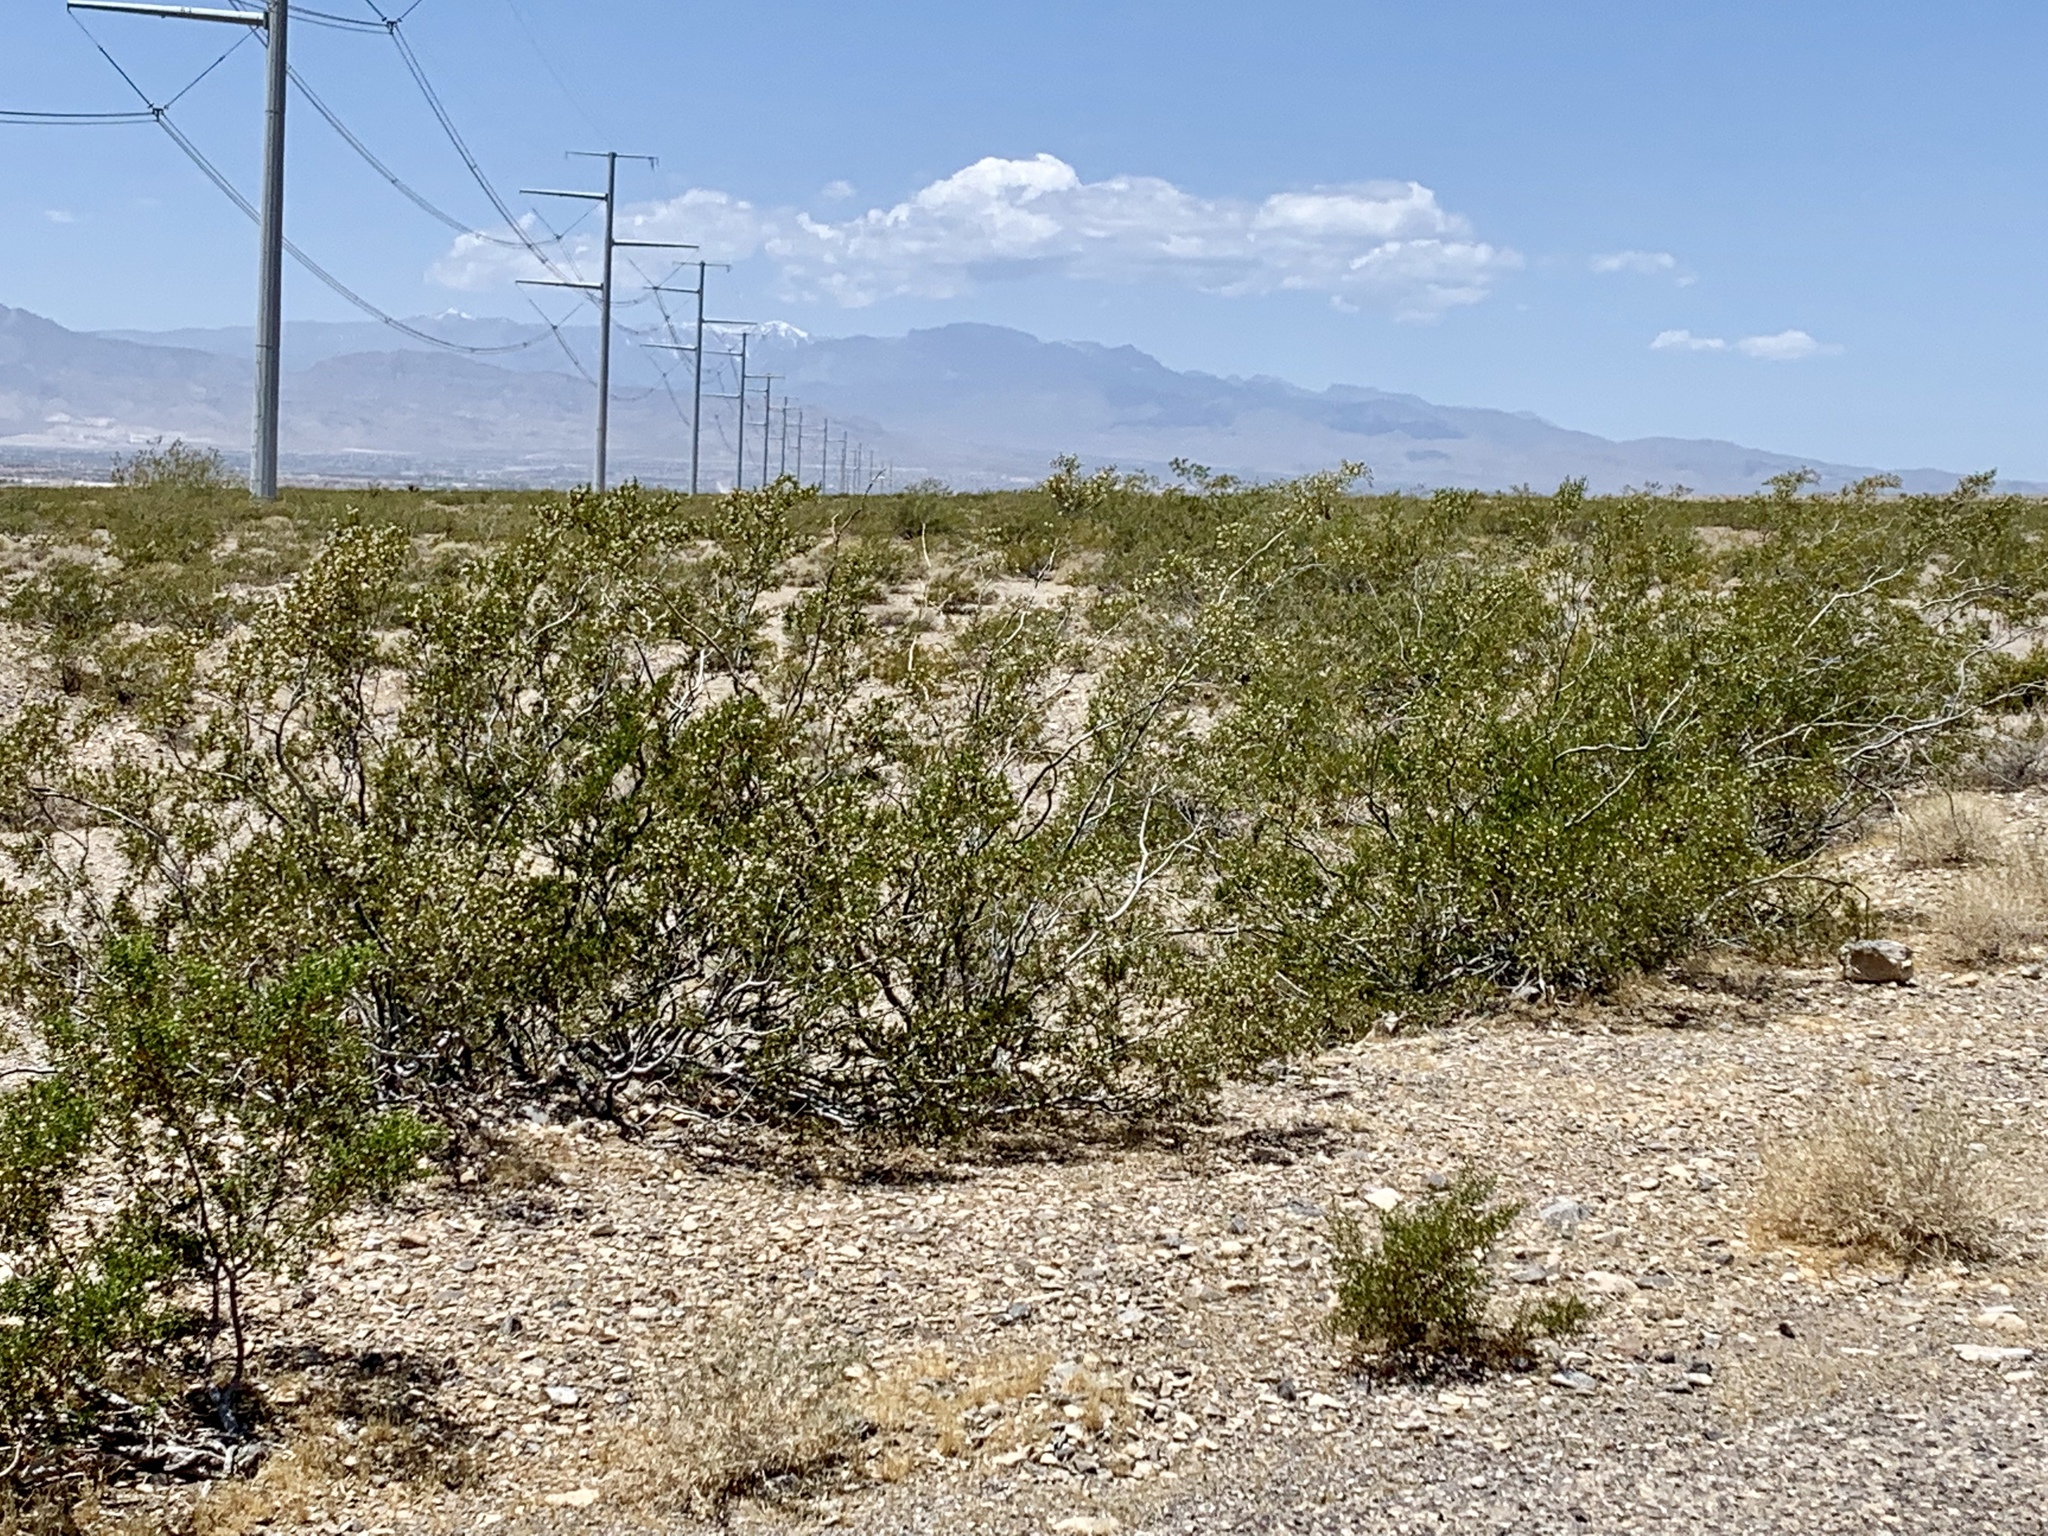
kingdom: Plantae
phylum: Tracheophyta
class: Magnoliopsida
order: Zygophyllales
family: Zygophyllaceae
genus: Larrea
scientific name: Larrea tridentata
